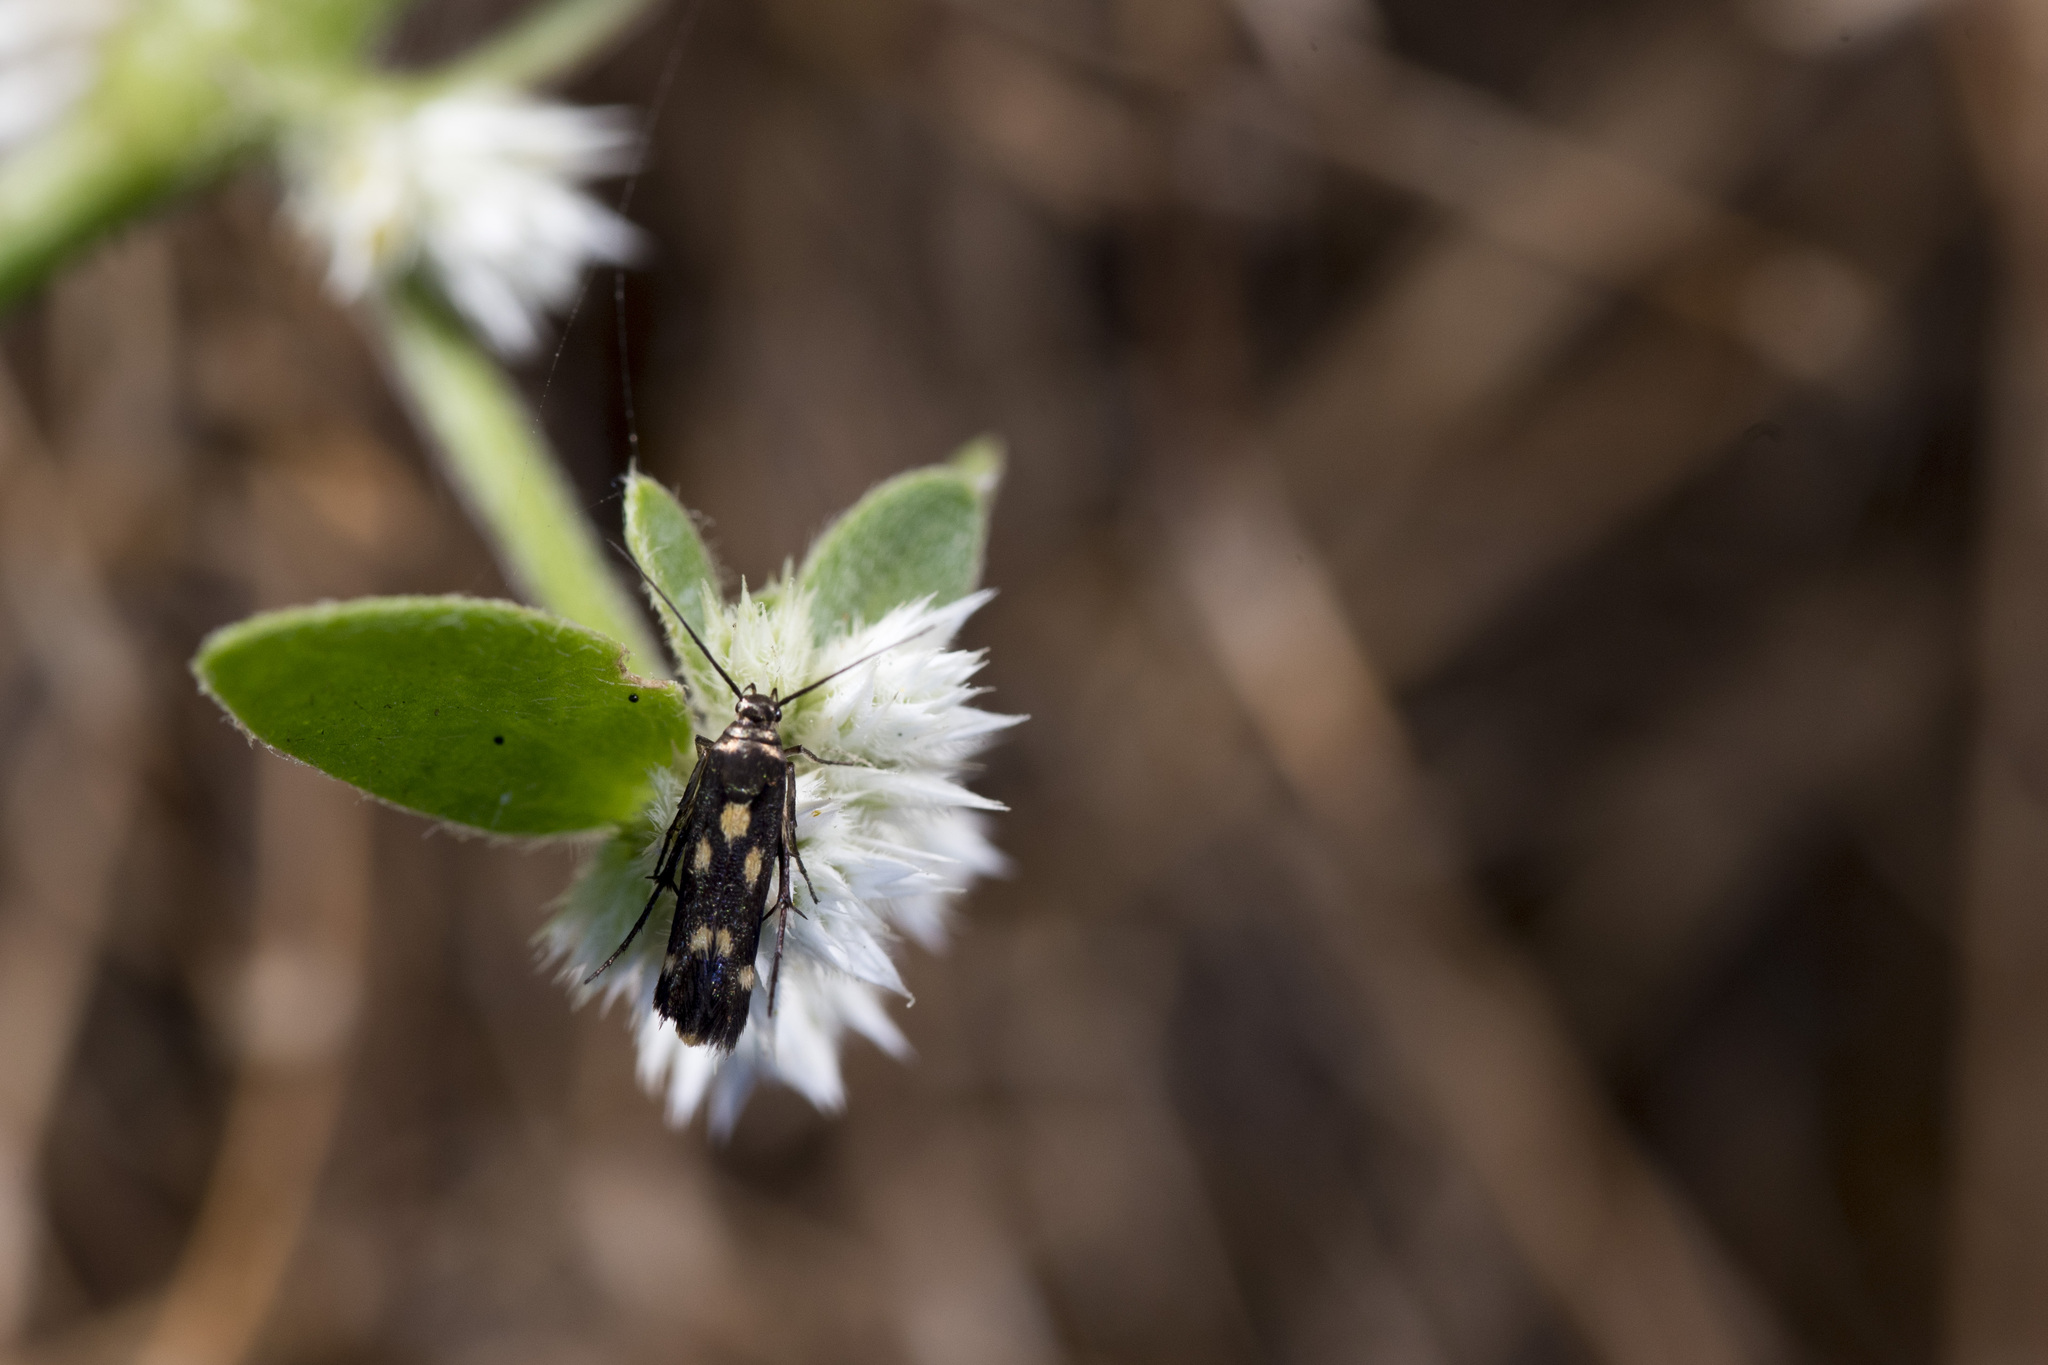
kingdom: Animalia
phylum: Arthropoda
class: Insecta
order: Lepidoptera
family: Scythrididae
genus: Eretmocera
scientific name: Eretmocera impactella
